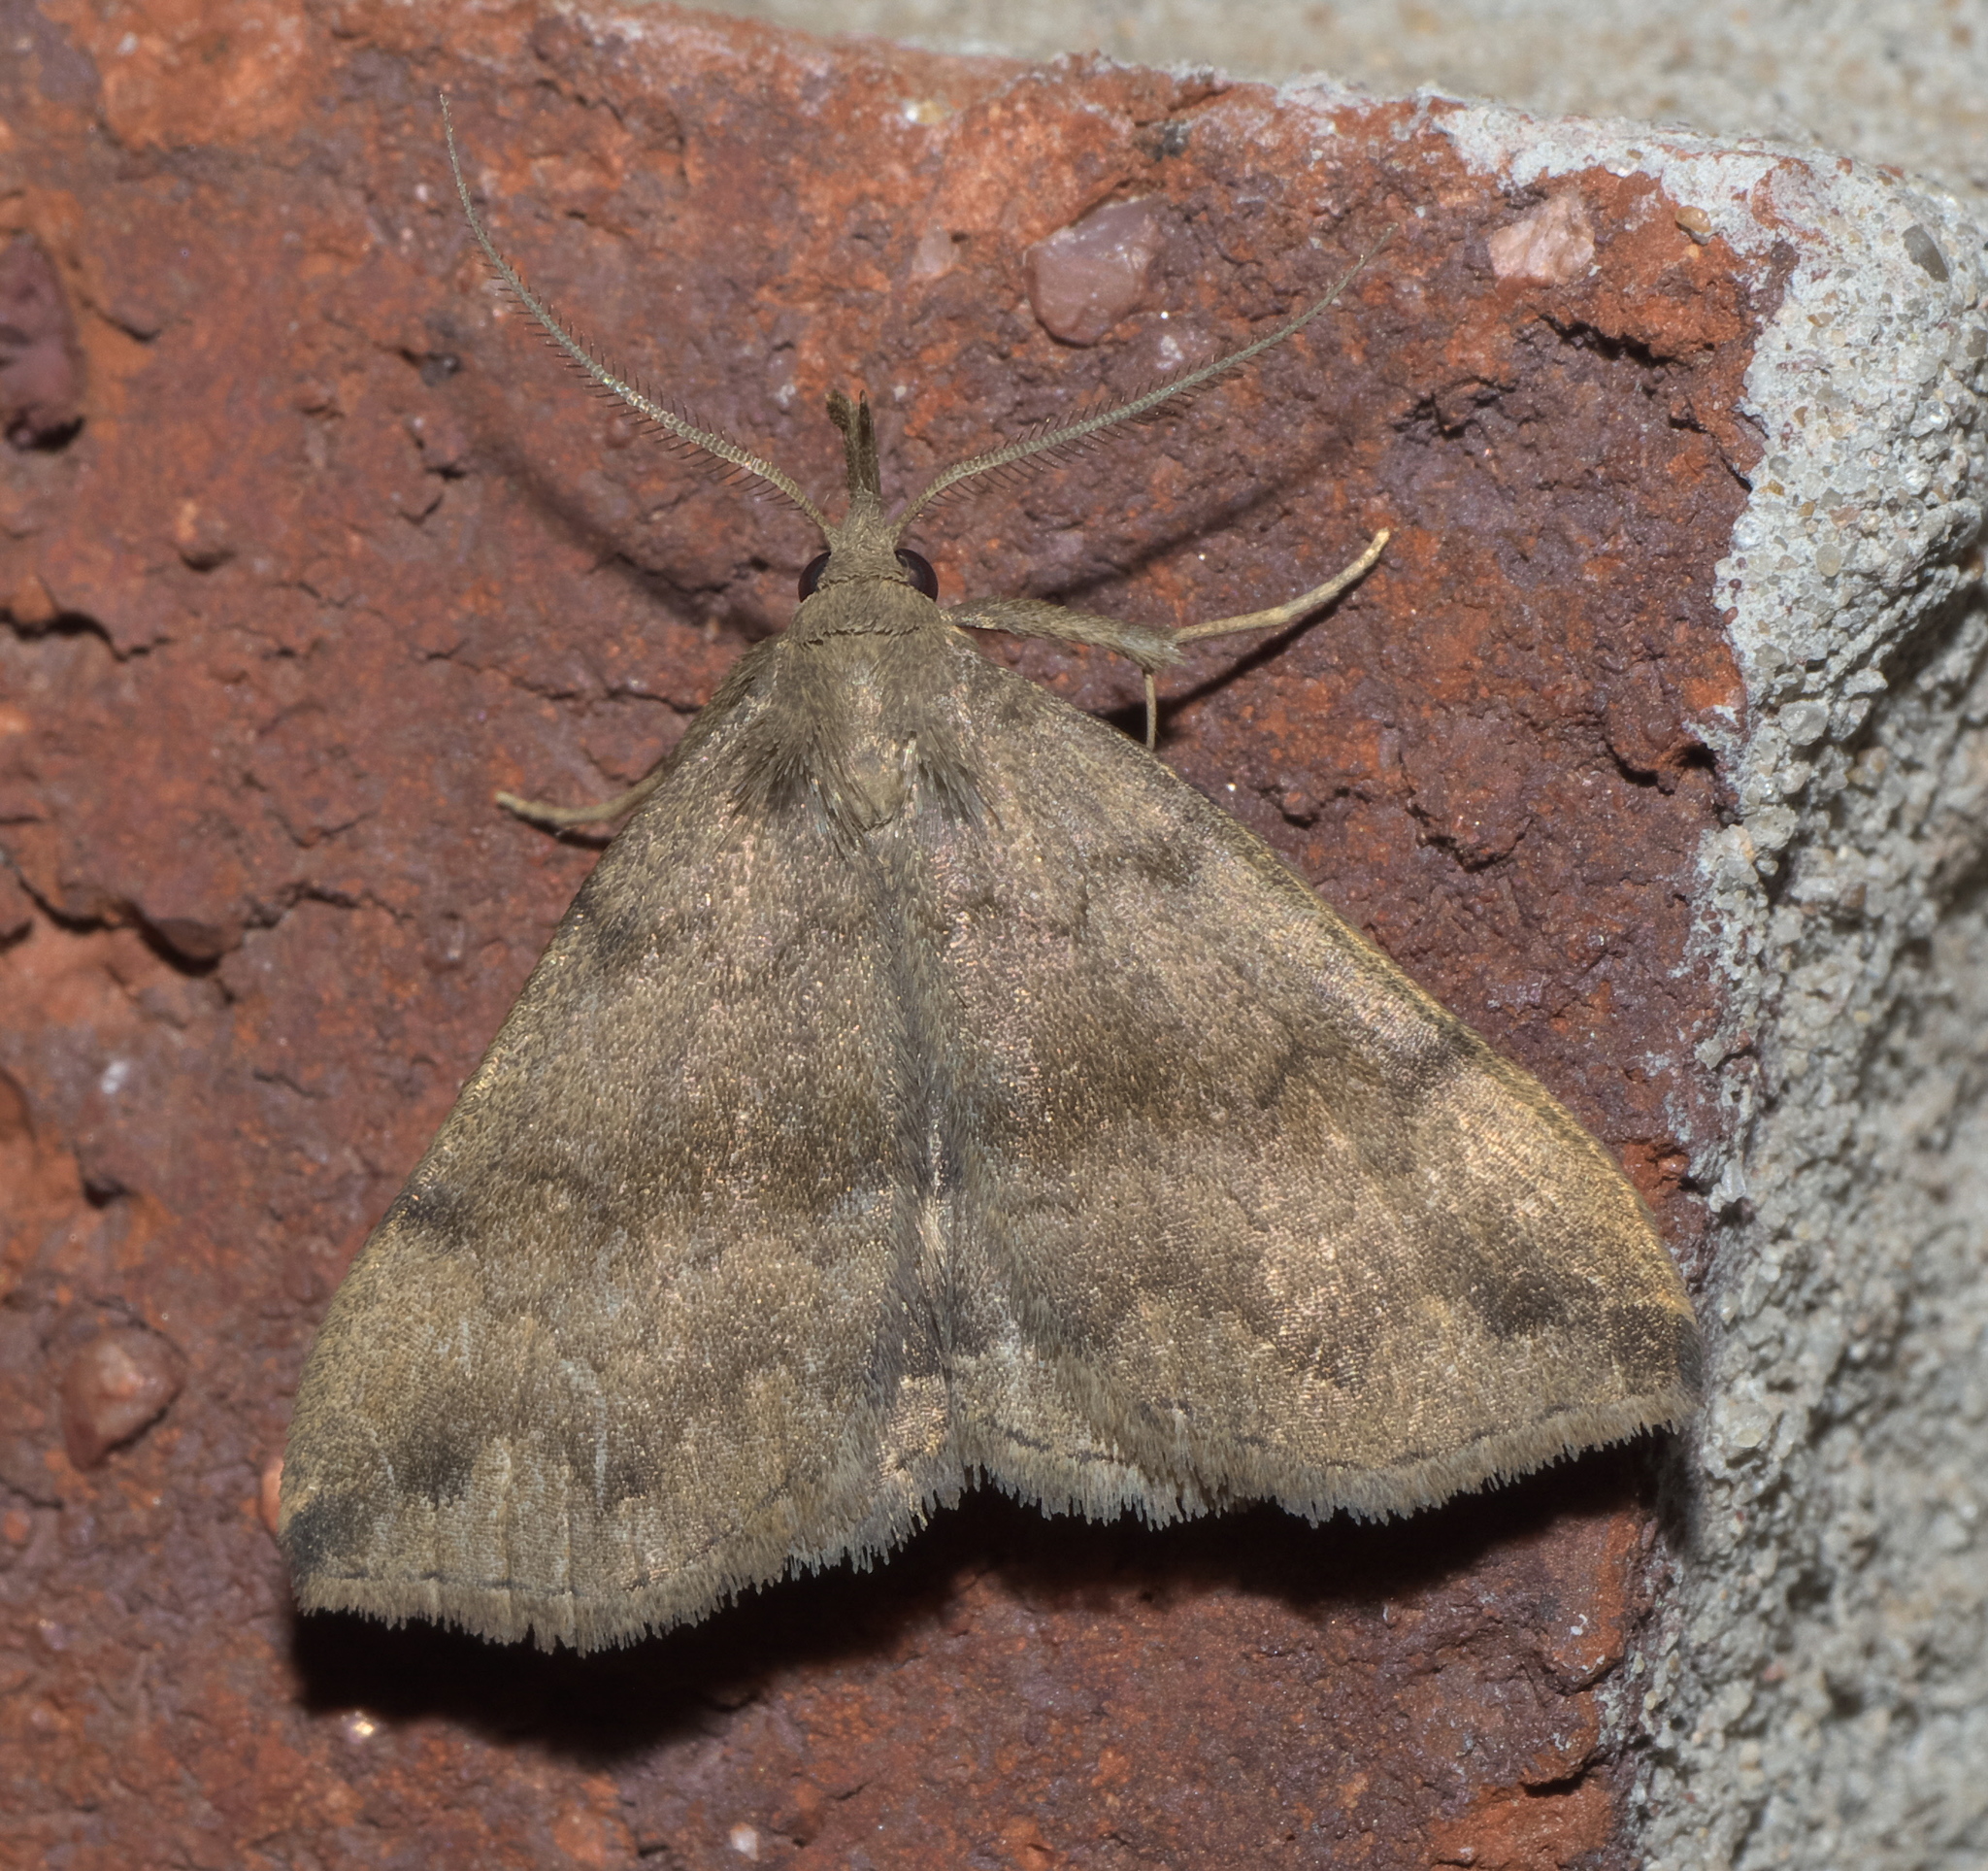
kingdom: Animalia
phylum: Arthropoda
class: Insecta
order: Lepidoptera
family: Erebidae
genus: Phalaenostola
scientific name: Phalaenostola eumelusalis
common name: Dark phalaenostola moth
